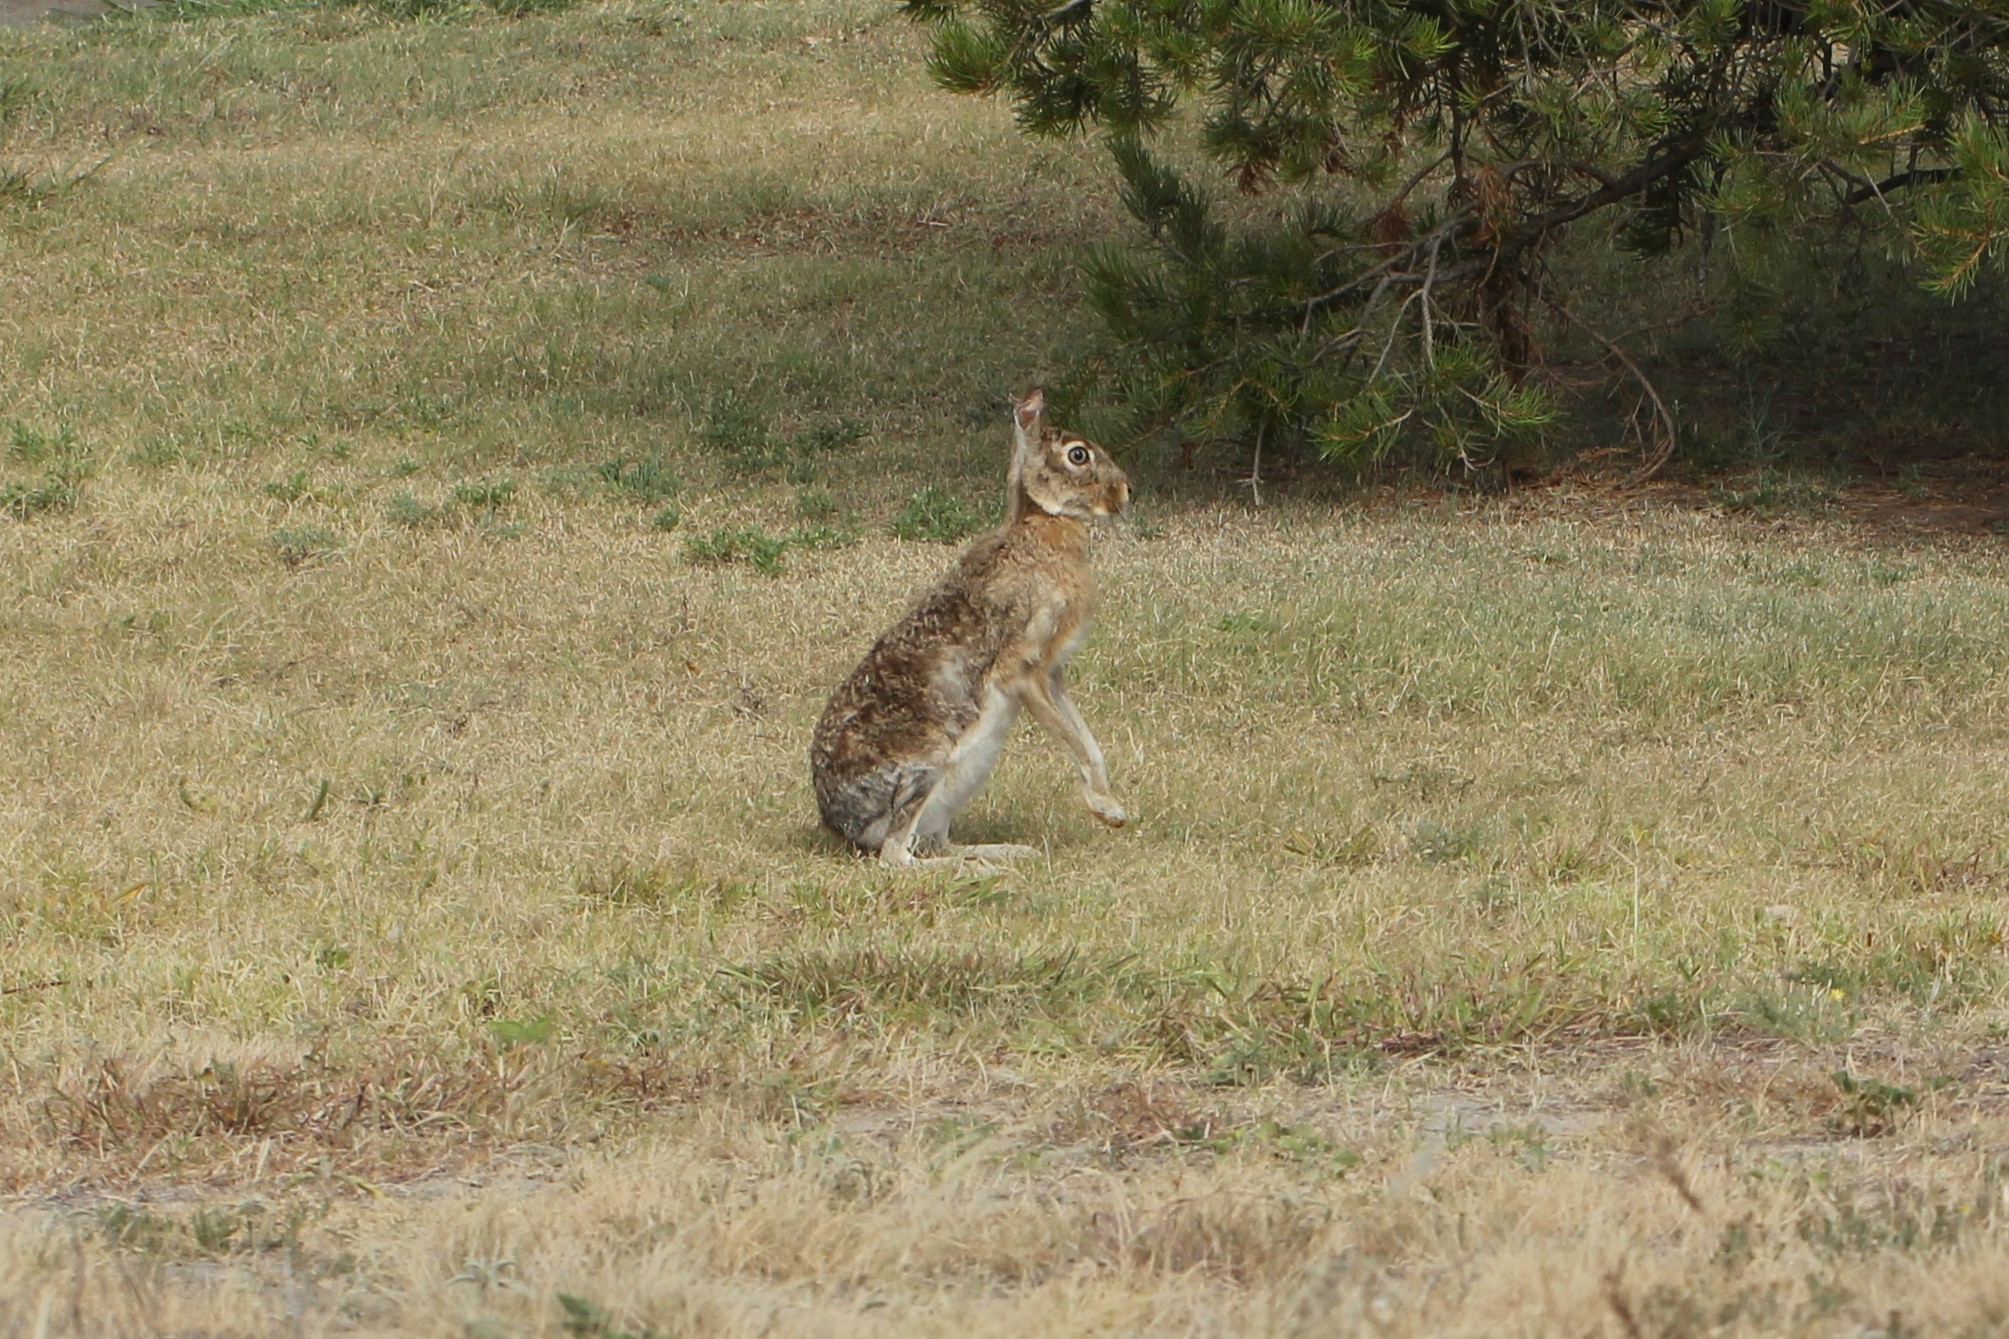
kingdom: Animalia
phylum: Chordata
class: Mammalia
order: Lagomorpha
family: Leporidae
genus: Lepus
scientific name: Lepus californicus
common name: Black-tailed jackrabbit
